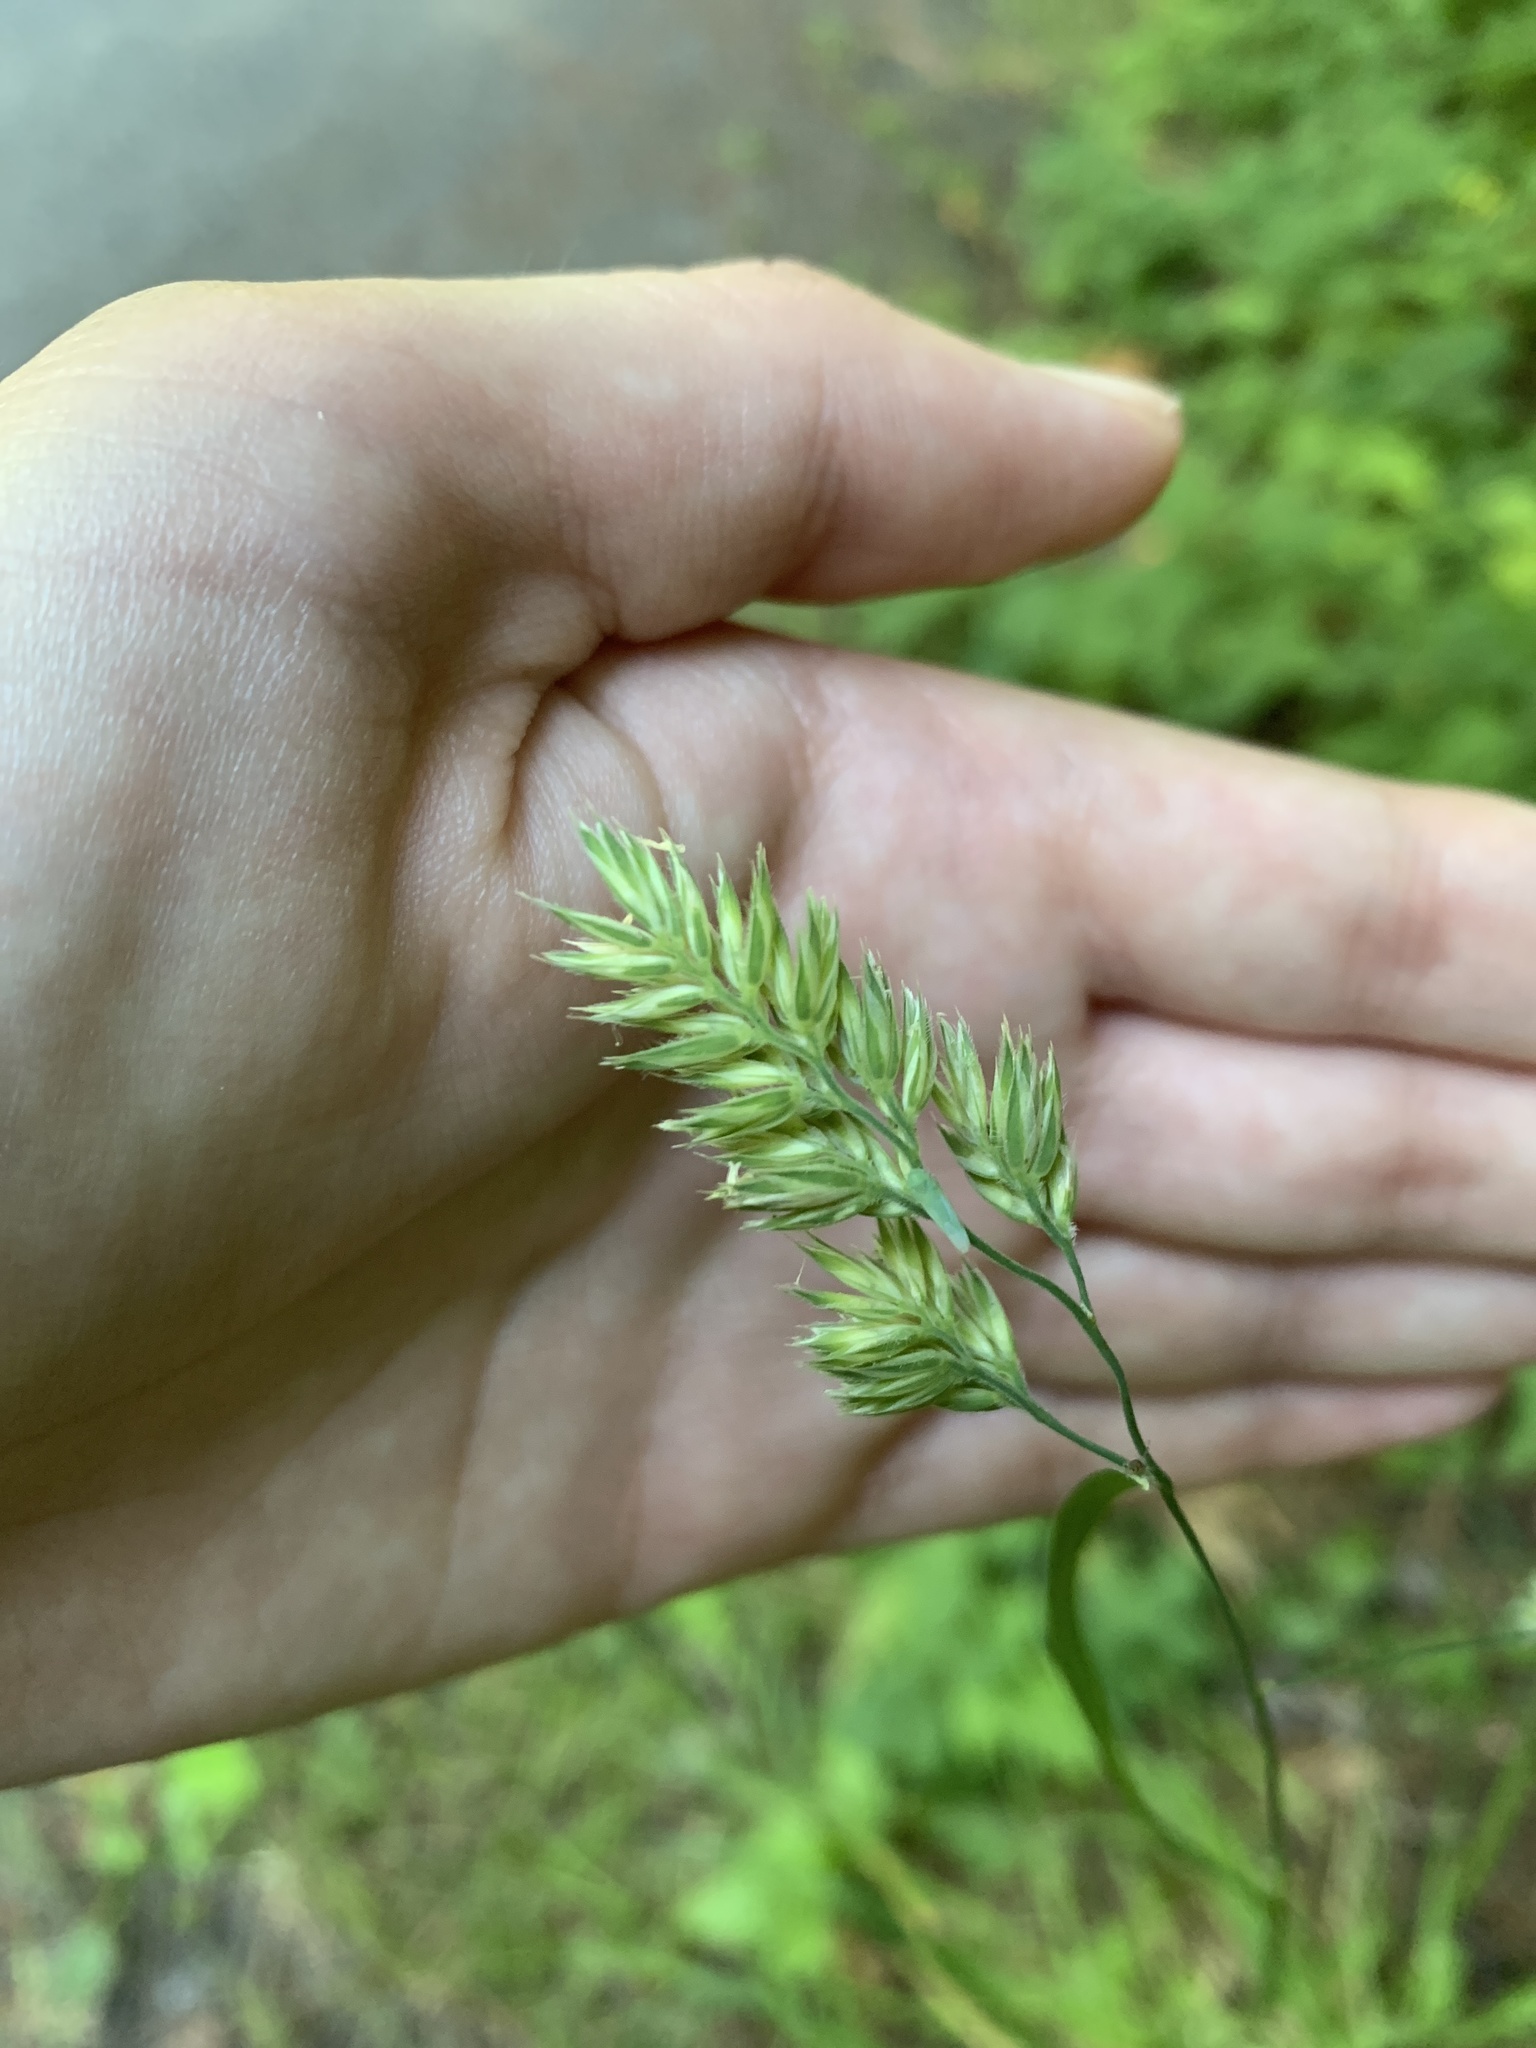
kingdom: Plantae
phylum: Tracheophyta
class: Liliopsida
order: Poales
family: Poaceae
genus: Dactylis
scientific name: Dactylis glomerata
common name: Orchardgrass
